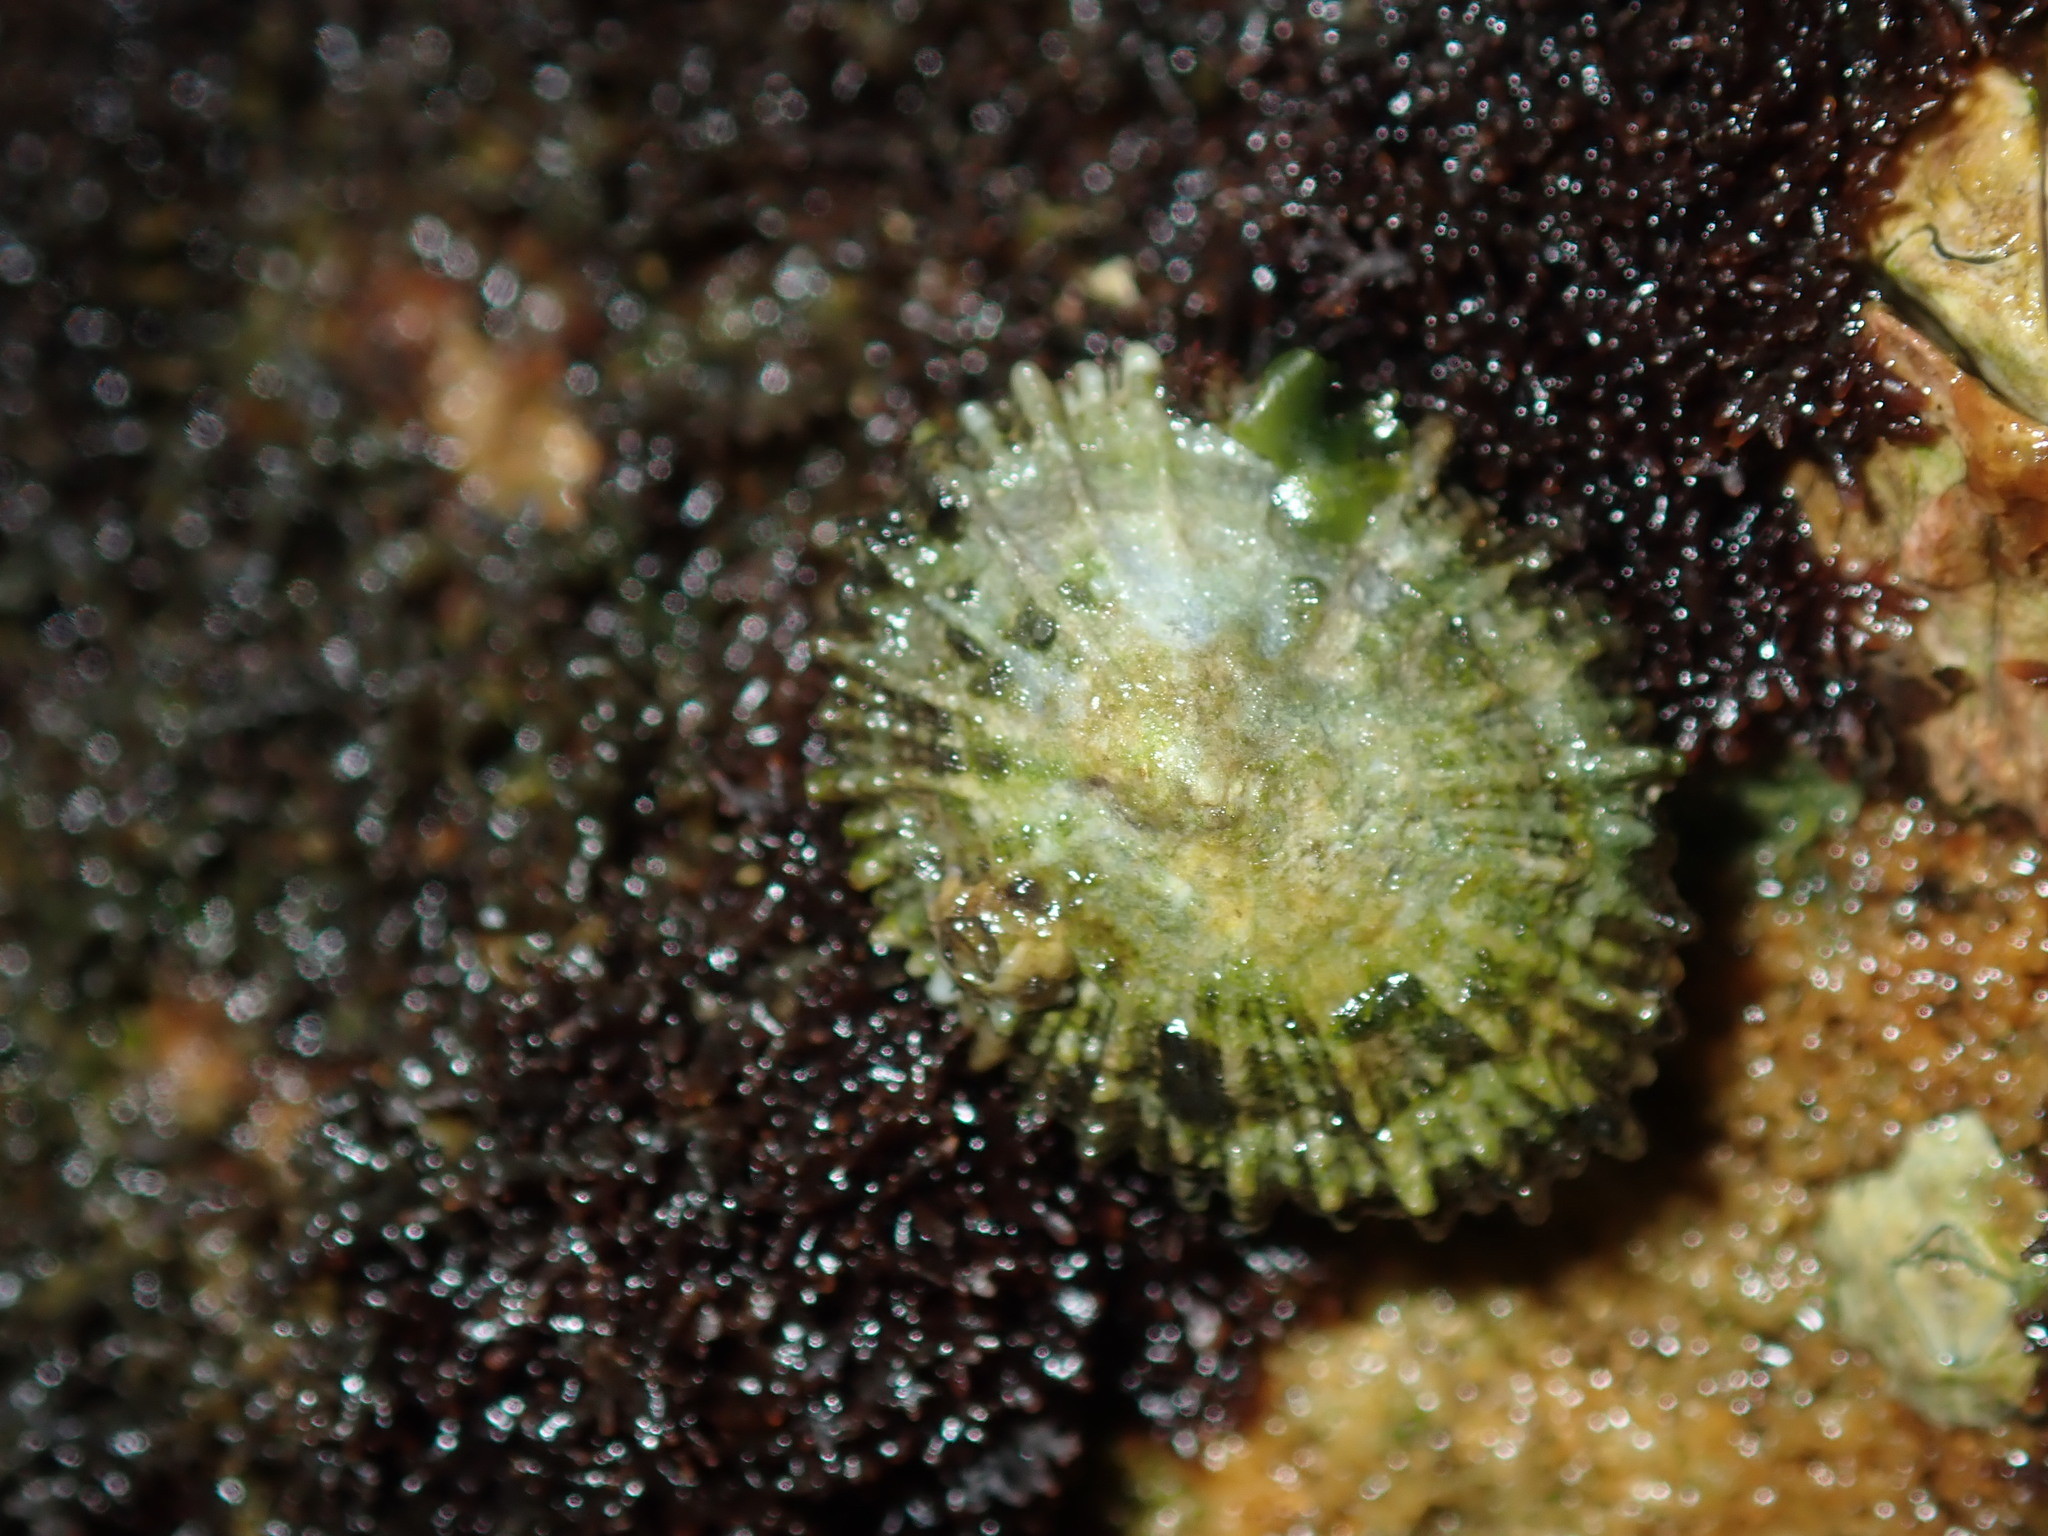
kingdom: Animalia
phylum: Mollusca
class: Gastropoda
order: Lepetellida
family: Fissurellidae
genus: Montfortula
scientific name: Montfortula rugosa
